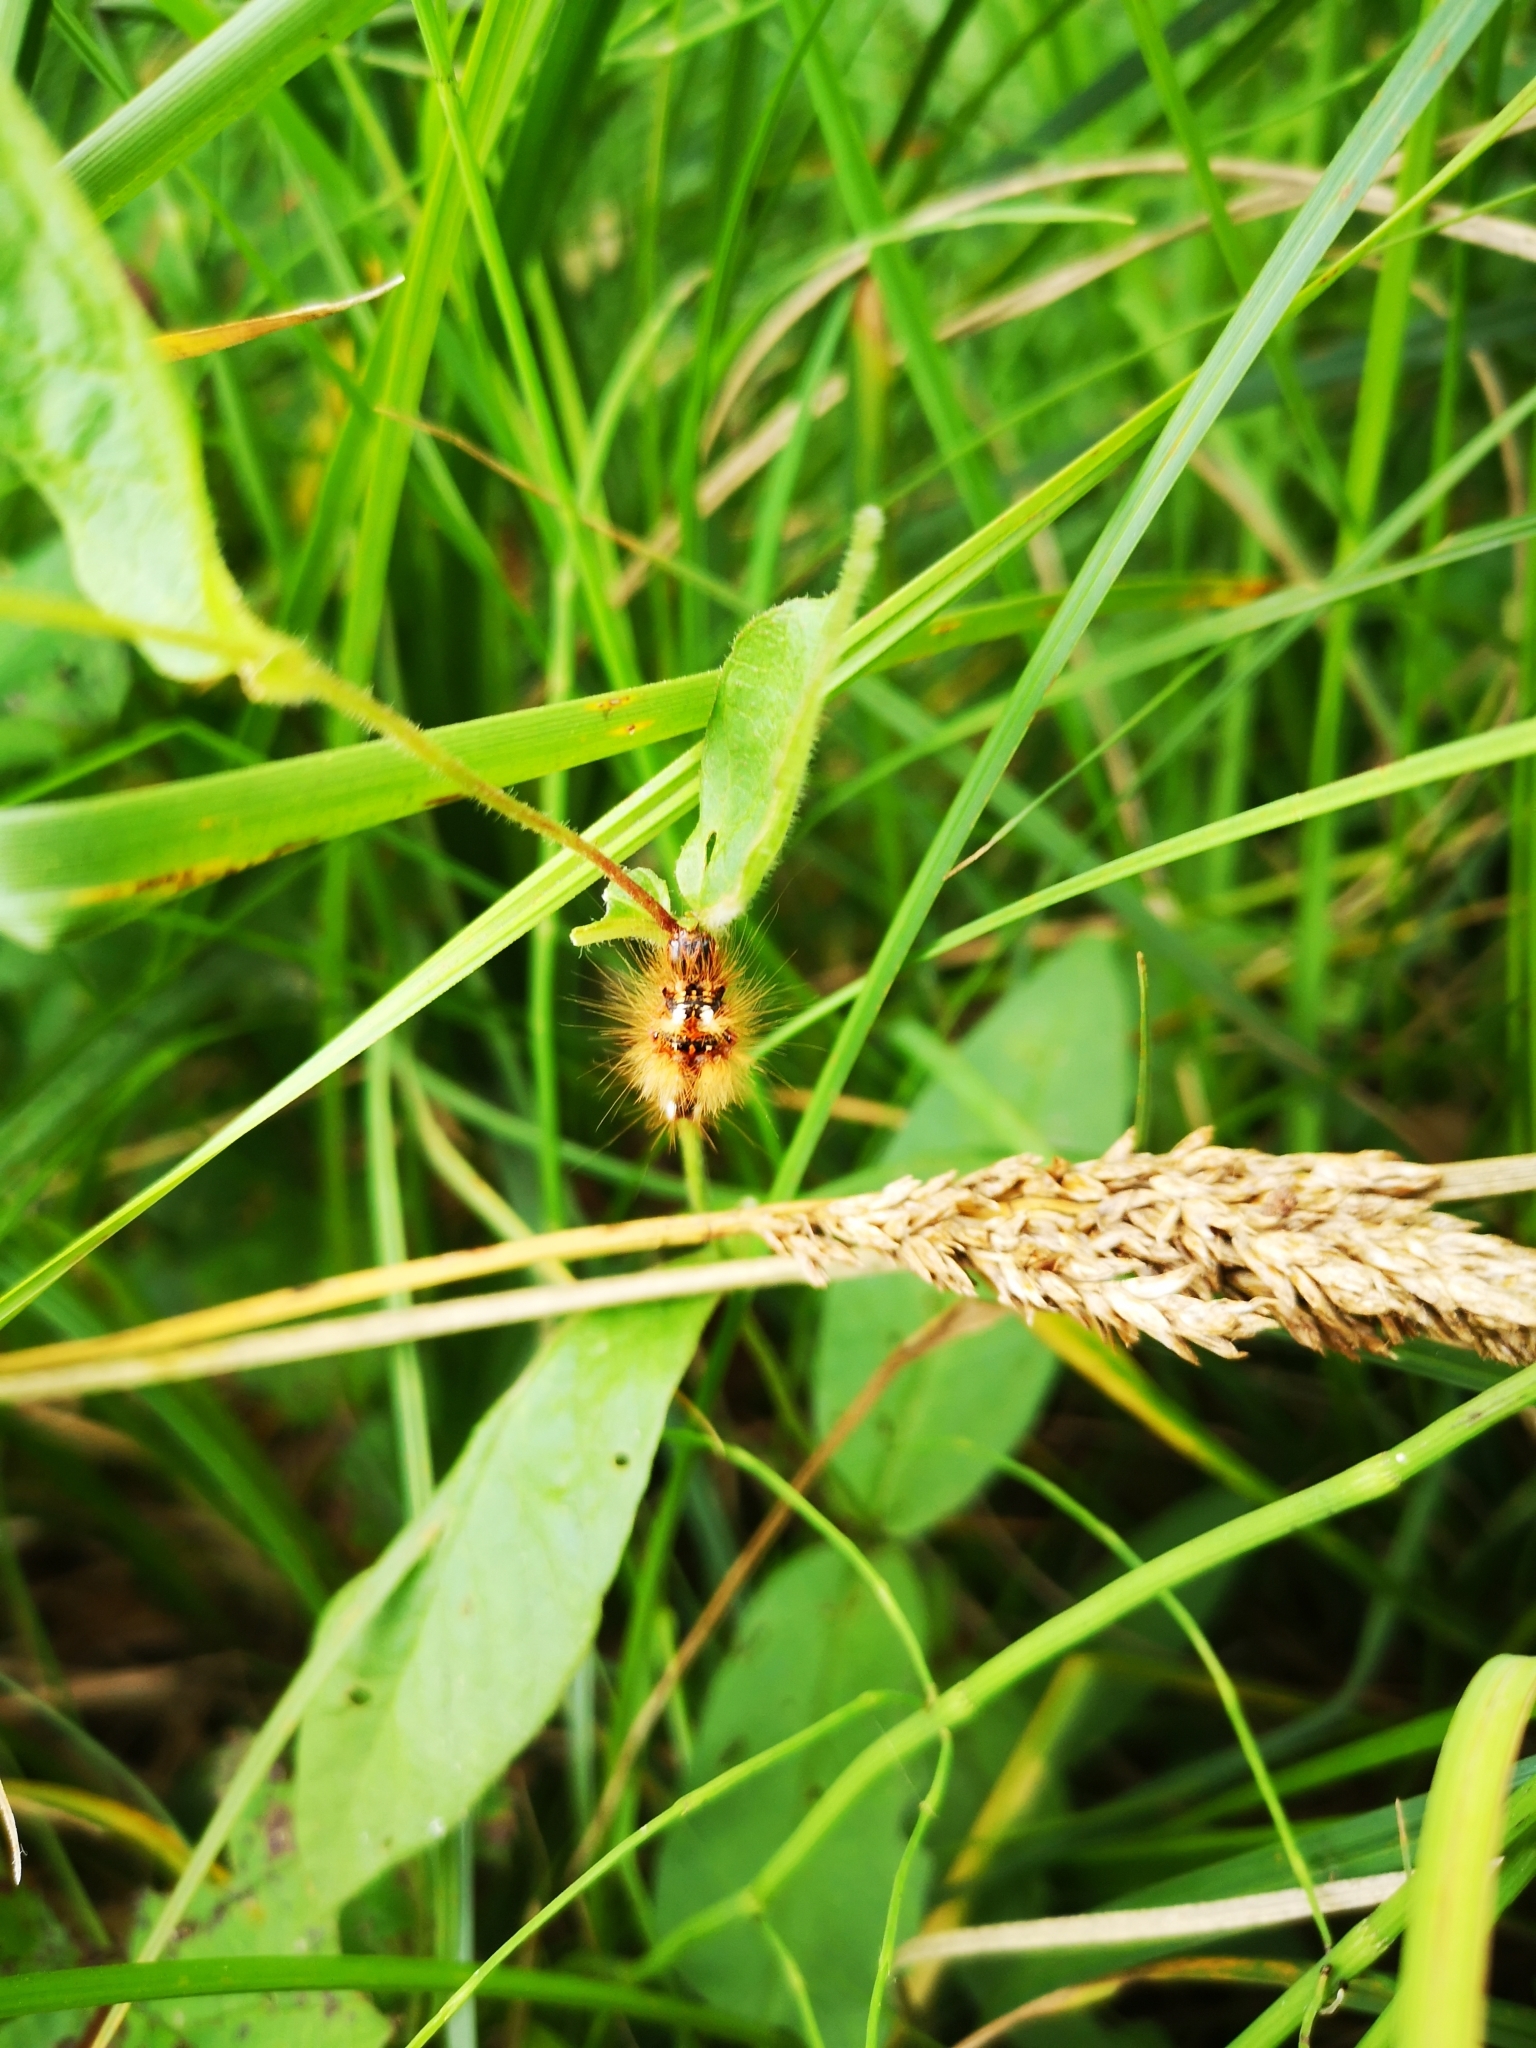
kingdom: Animalia
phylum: Arthropoda
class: Insecta
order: Lepidoptera
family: Noctuidae
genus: Acronicta
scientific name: Acronicta rumicis
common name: Knot grass
